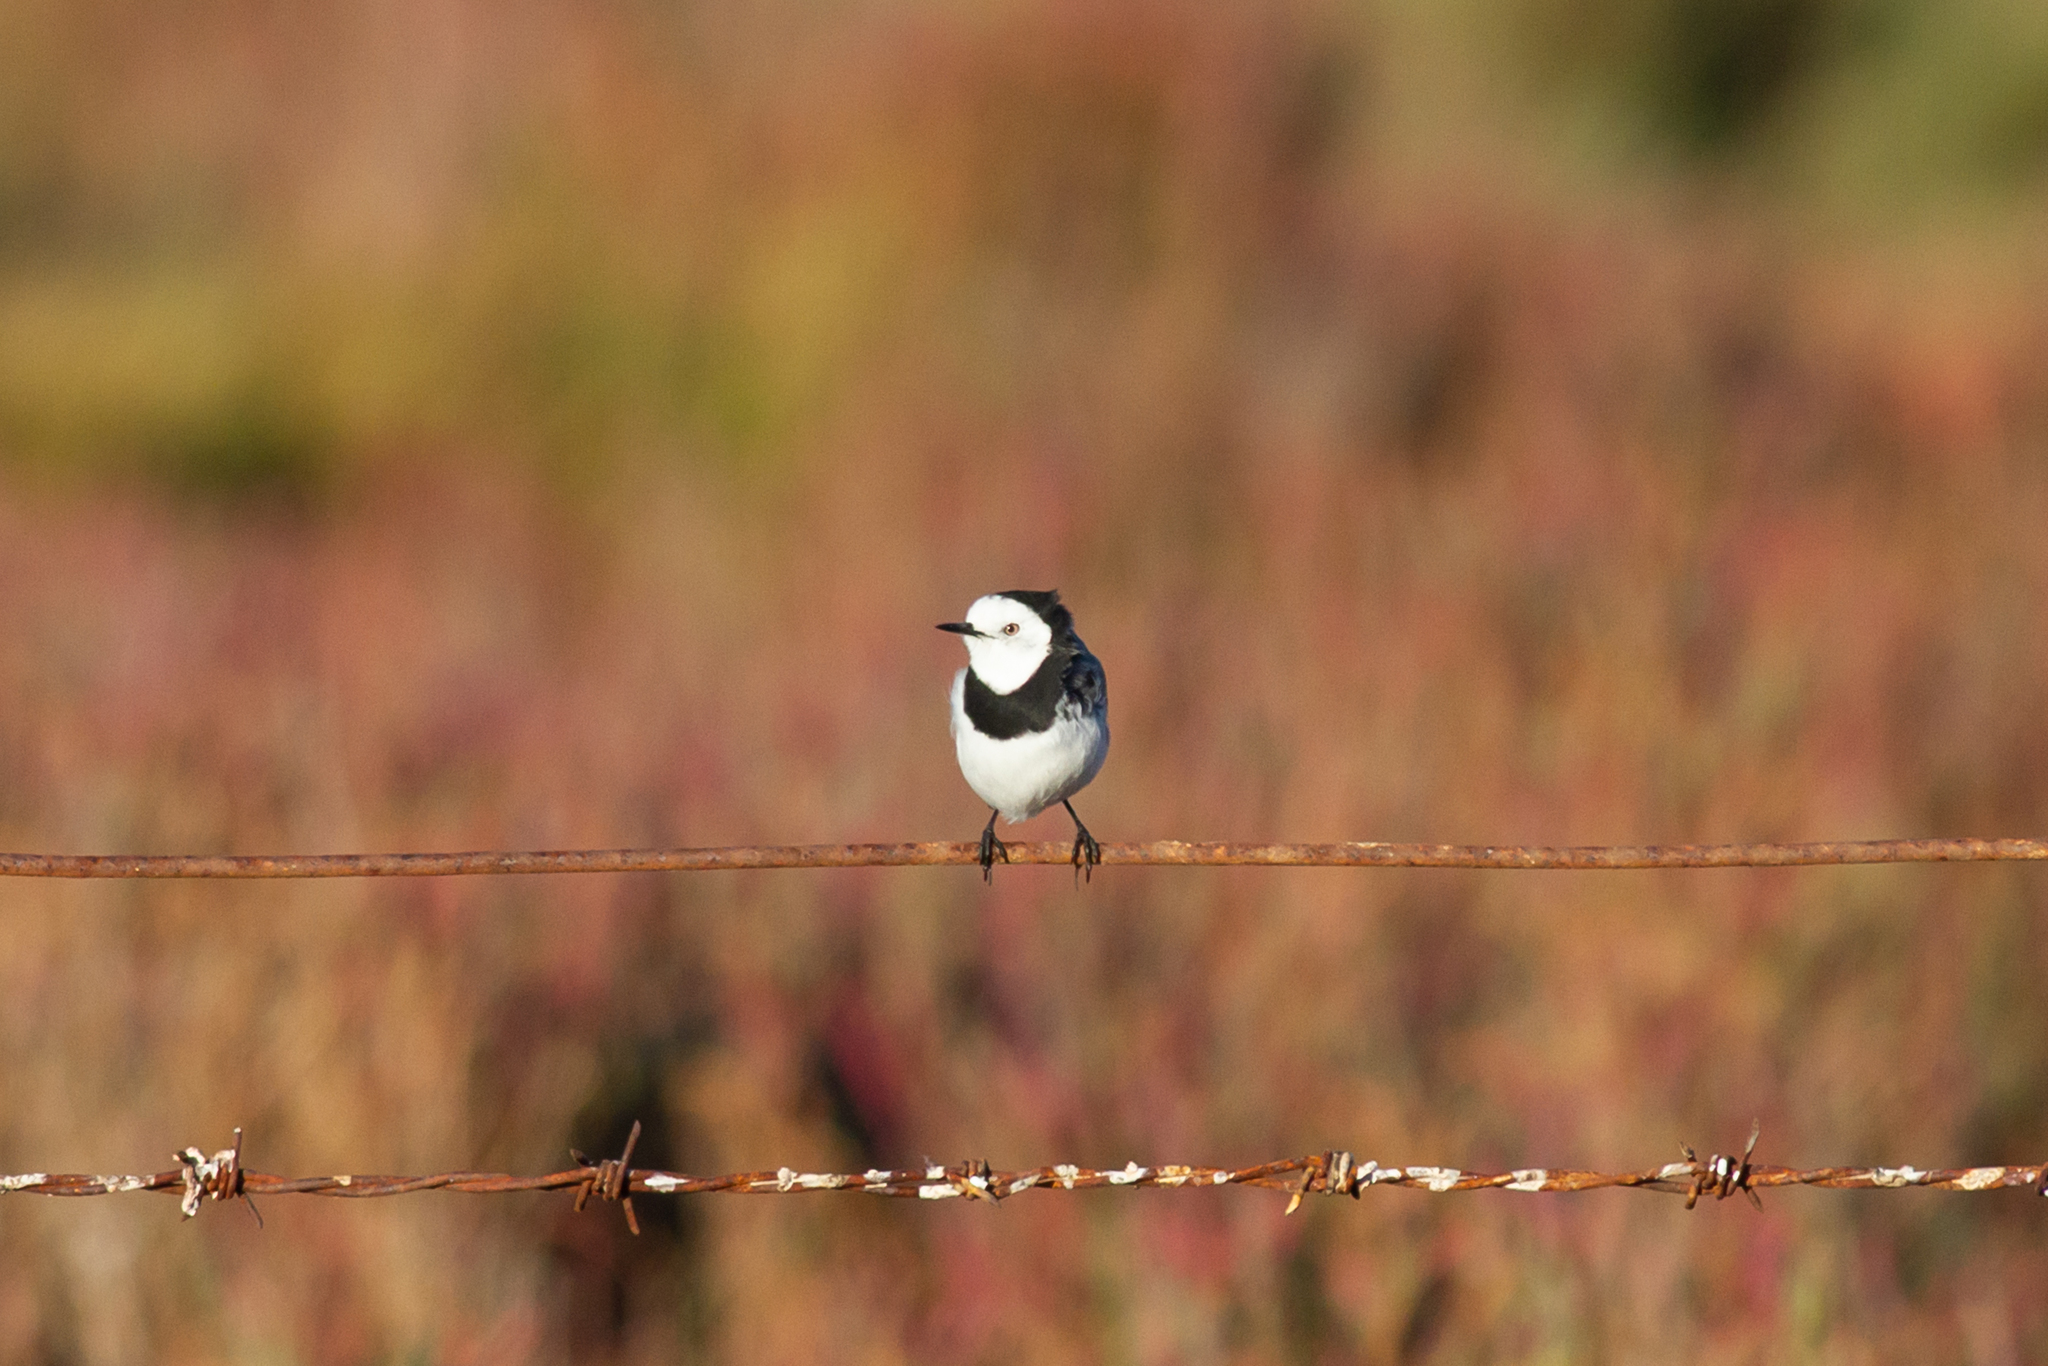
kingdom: Animalia
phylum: Chordata
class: Aves
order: Passeriformes
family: Meliphagidae
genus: Epthianura
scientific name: Epthianura albifrons
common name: White-fronted chat
